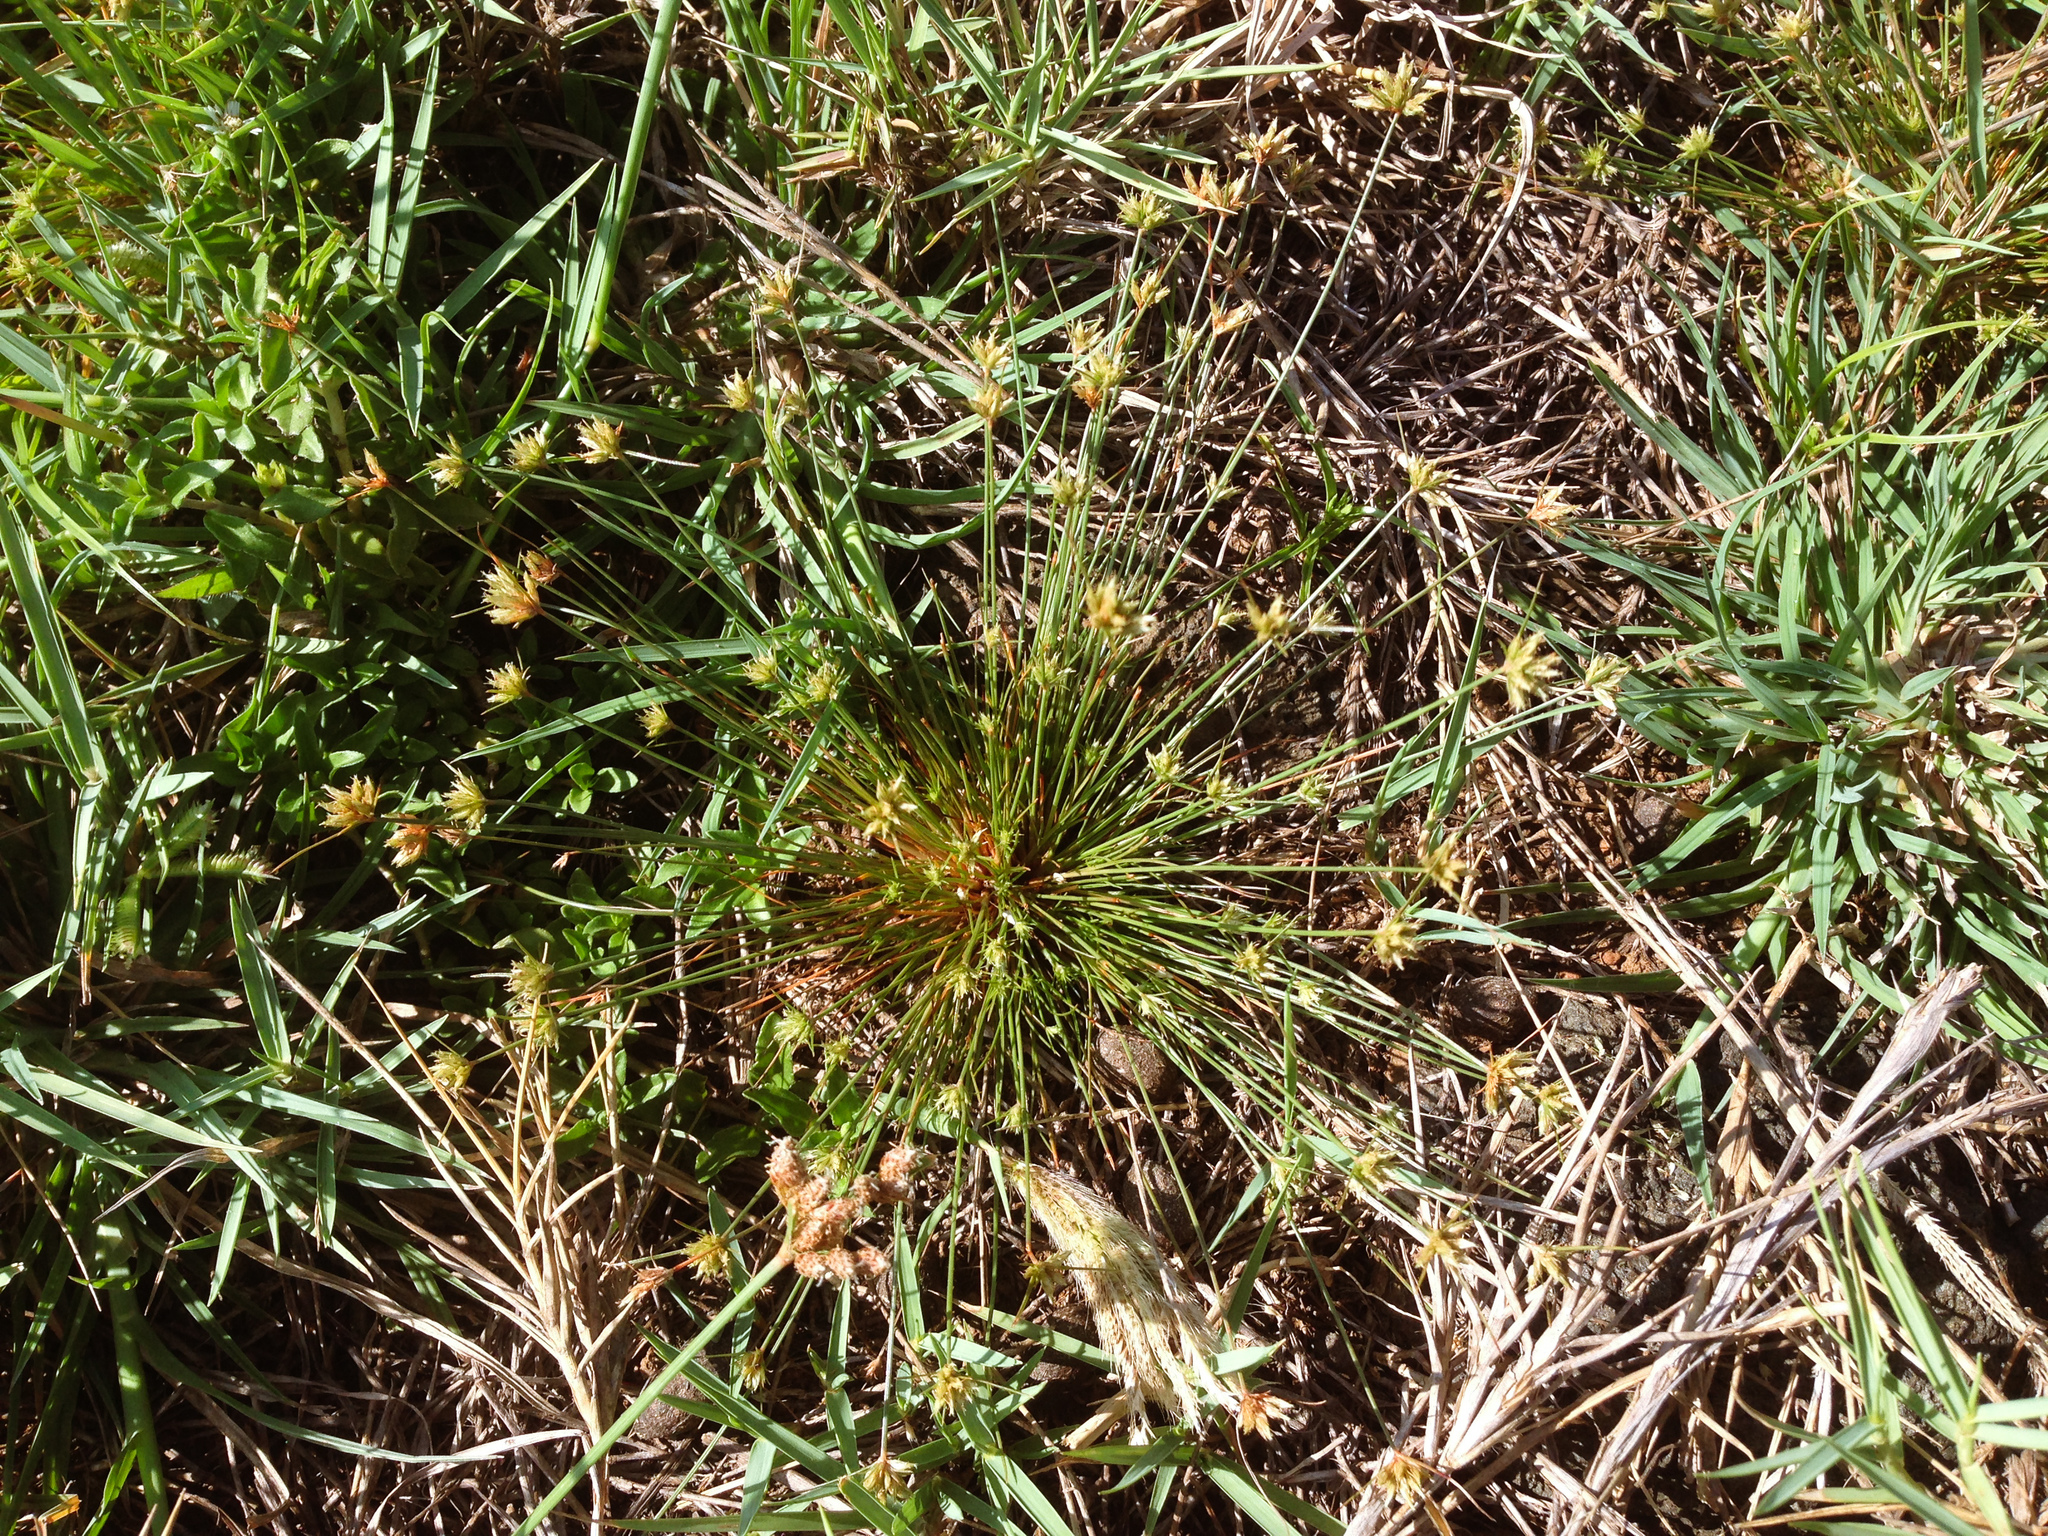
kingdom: Plantae
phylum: Tracheophyta
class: Liliopsida
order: Poales
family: Cyperaceae
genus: Bulbostylis
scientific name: Bulbostylis barbata
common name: Watergrass
